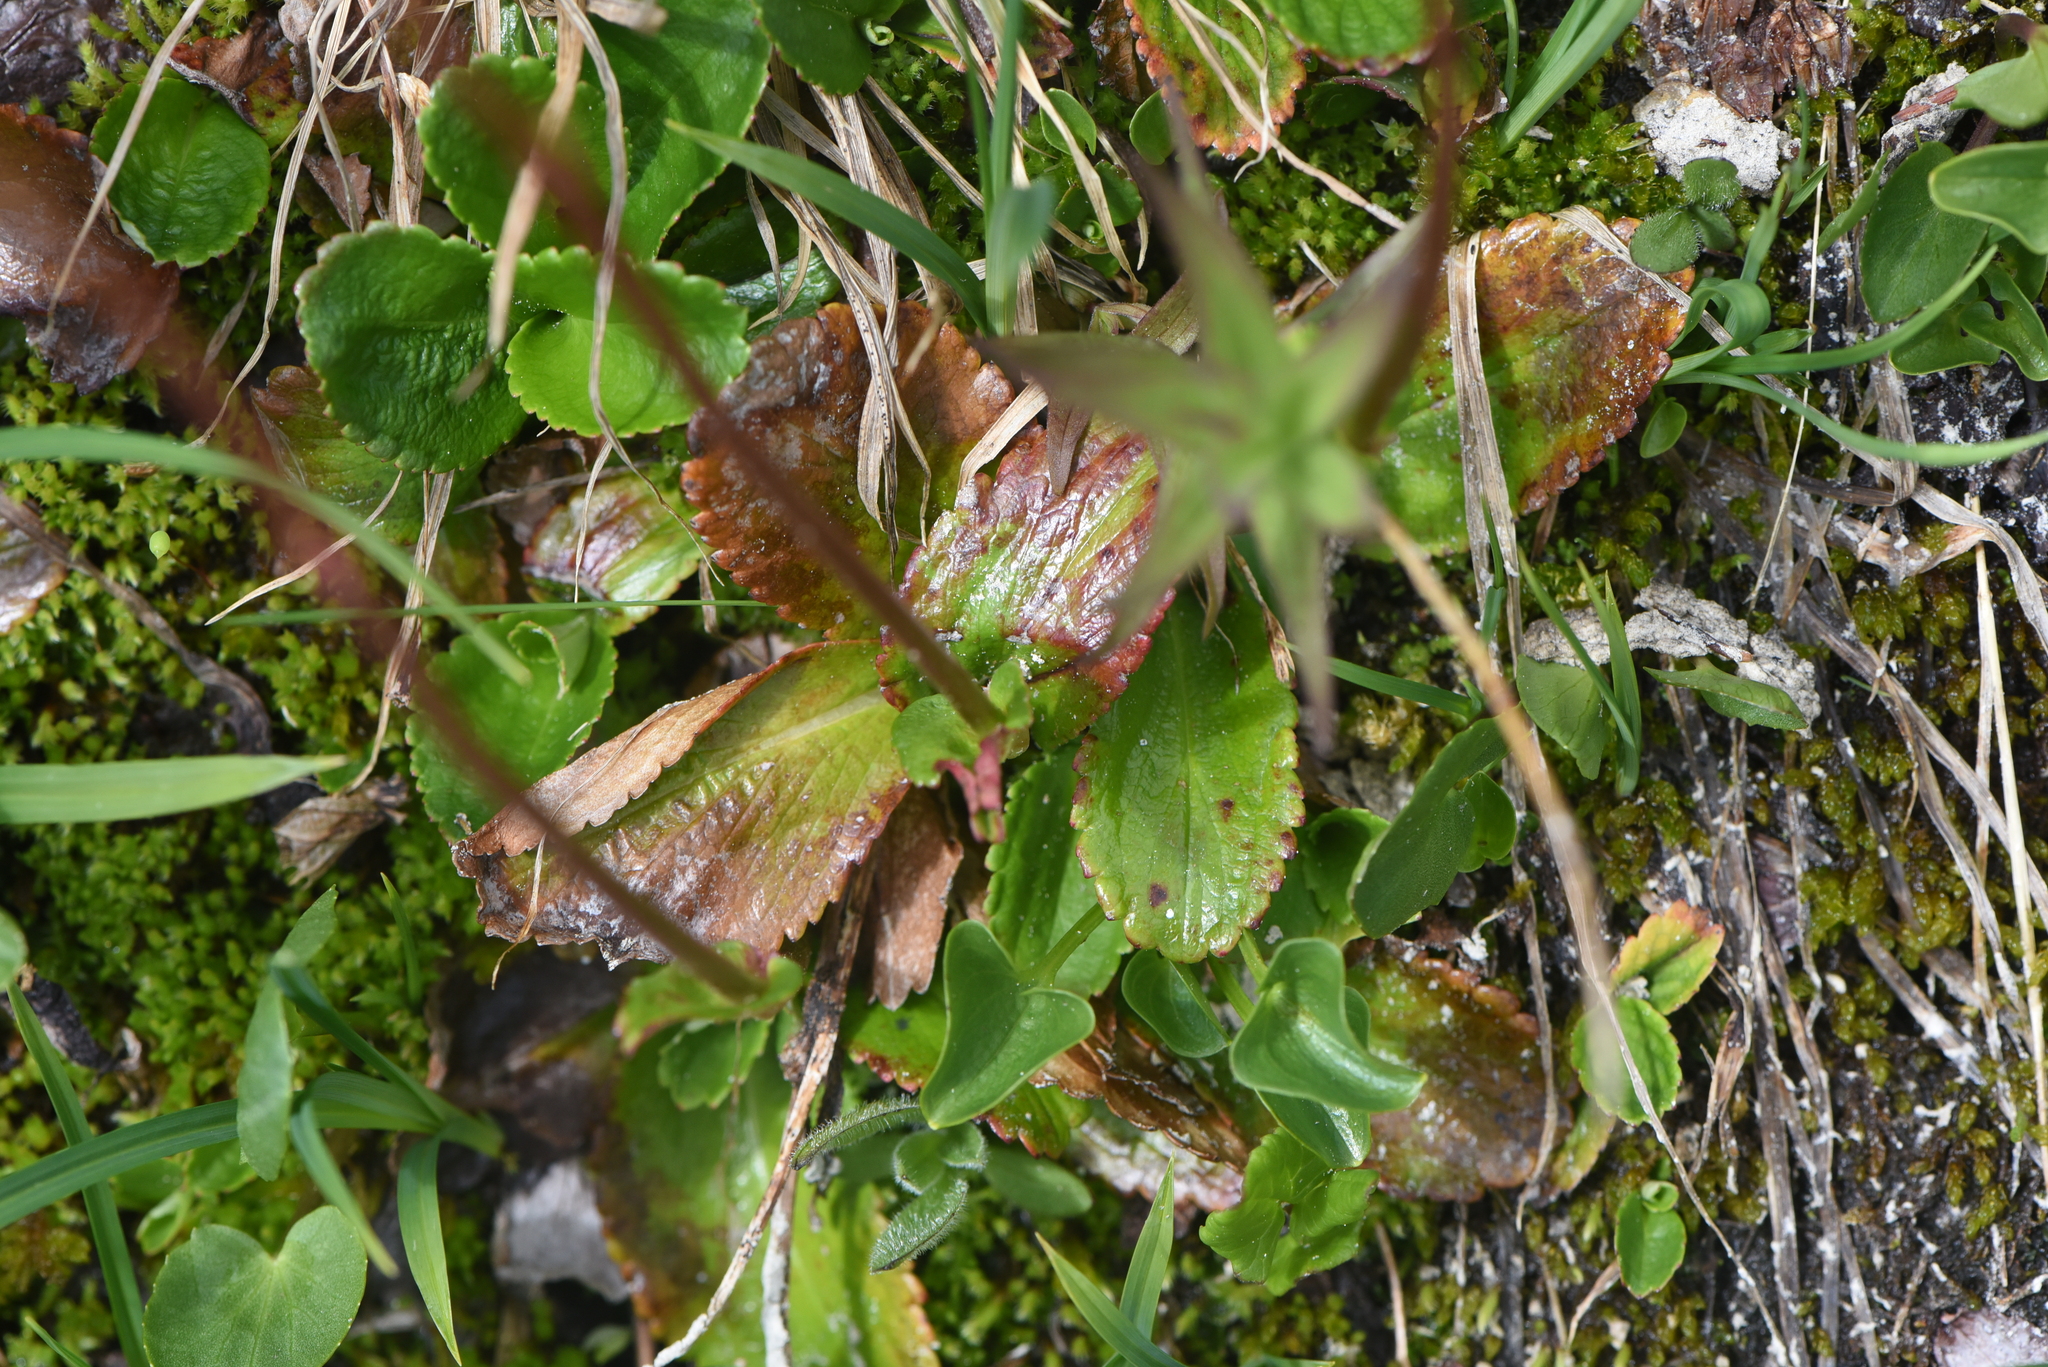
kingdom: Plantae
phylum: Tracheophyta
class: Magnoliopsida
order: Saxifragales
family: Saxifragaceae
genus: Leptarrhena
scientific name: Leptarrhena pyrolifolia
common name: Leatherleaf-saxifrage
